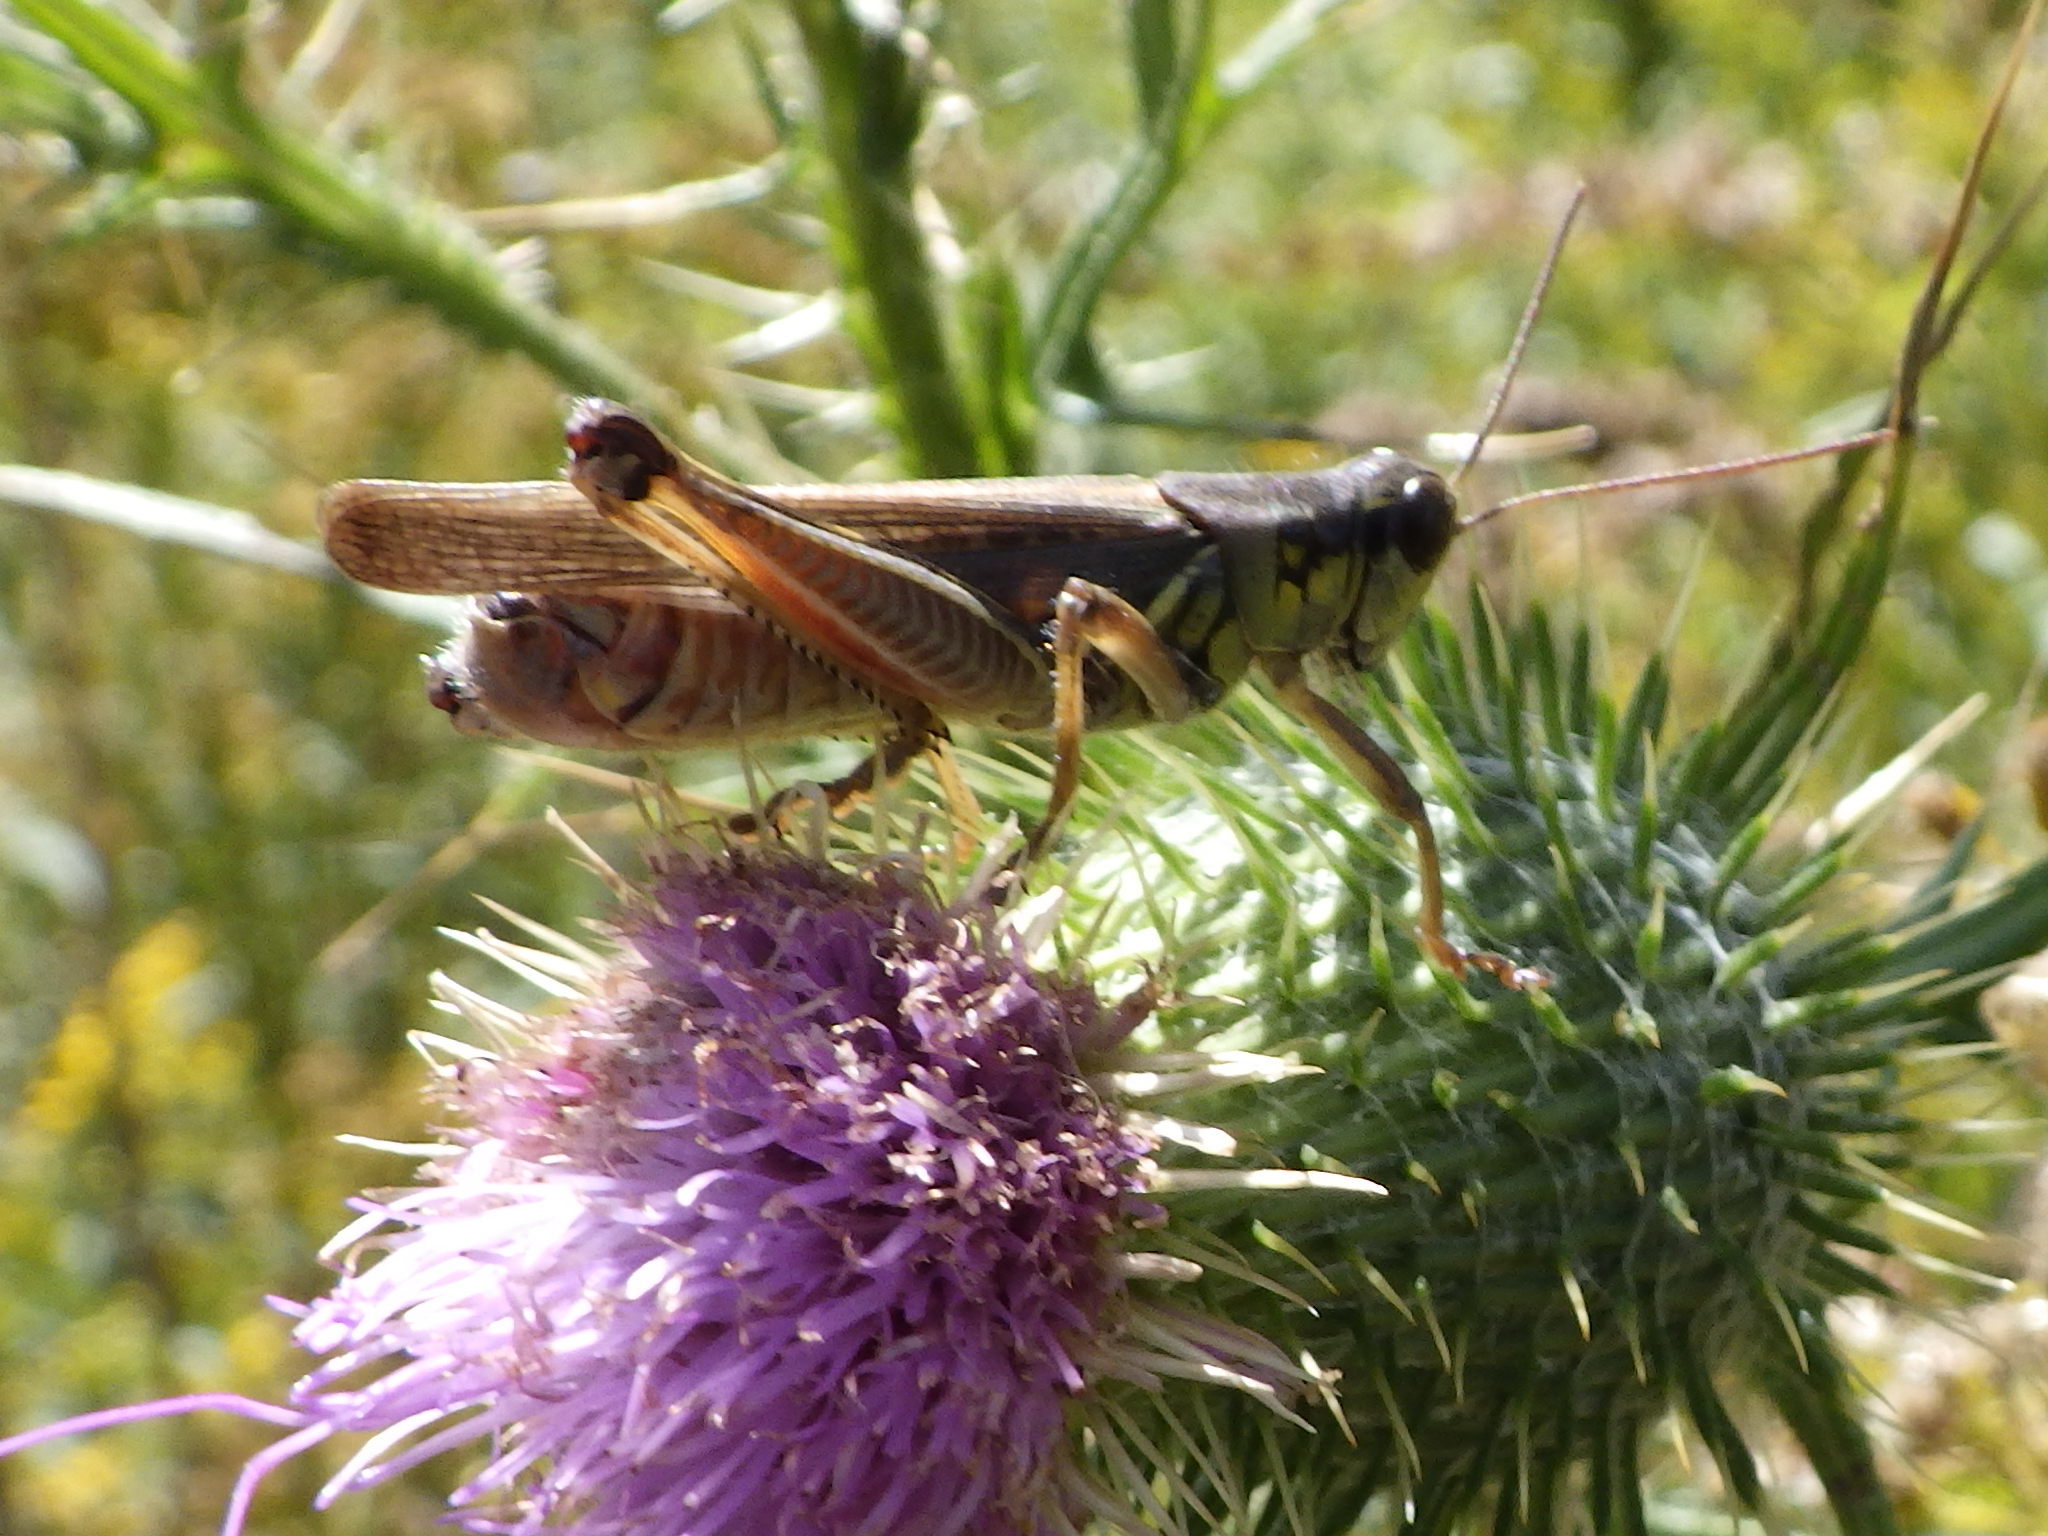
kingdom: Animalia
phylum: Arthropoda
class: Insecta
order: Orthoptera
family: Acrididae
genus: Melanoplus
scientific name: Melanoplus femurrubrum
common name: Red-legged grasshopper
